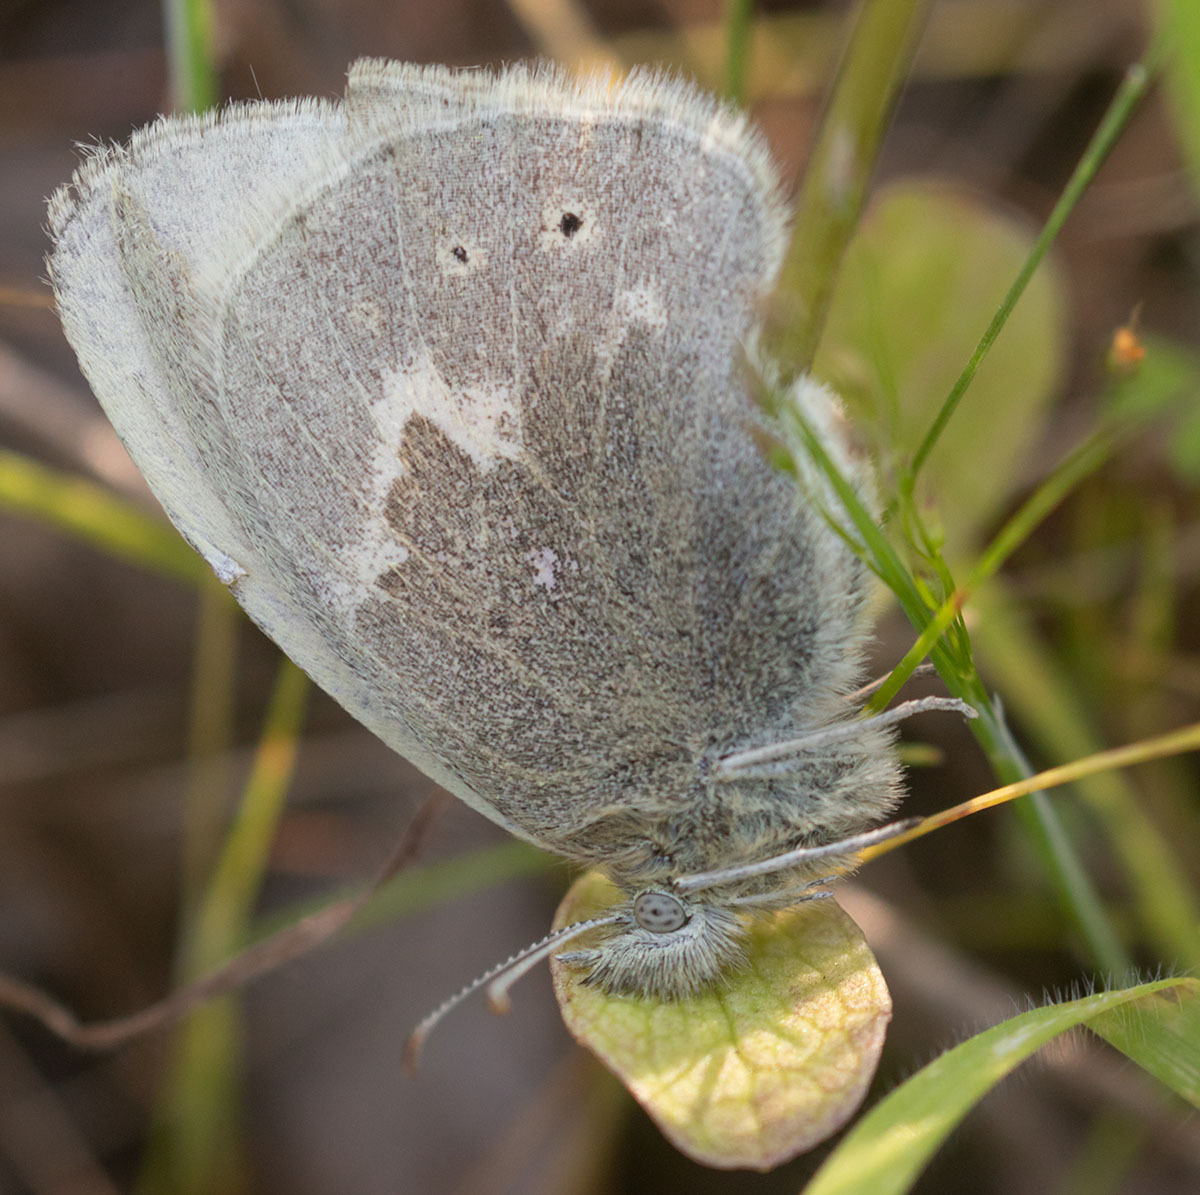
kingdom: Animalia
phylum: Arthropoda
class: Insecta
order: Lepidoptera
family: Nymphalidae
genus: Coenonympha
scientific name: Coenonympha california
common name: Common ringlet
